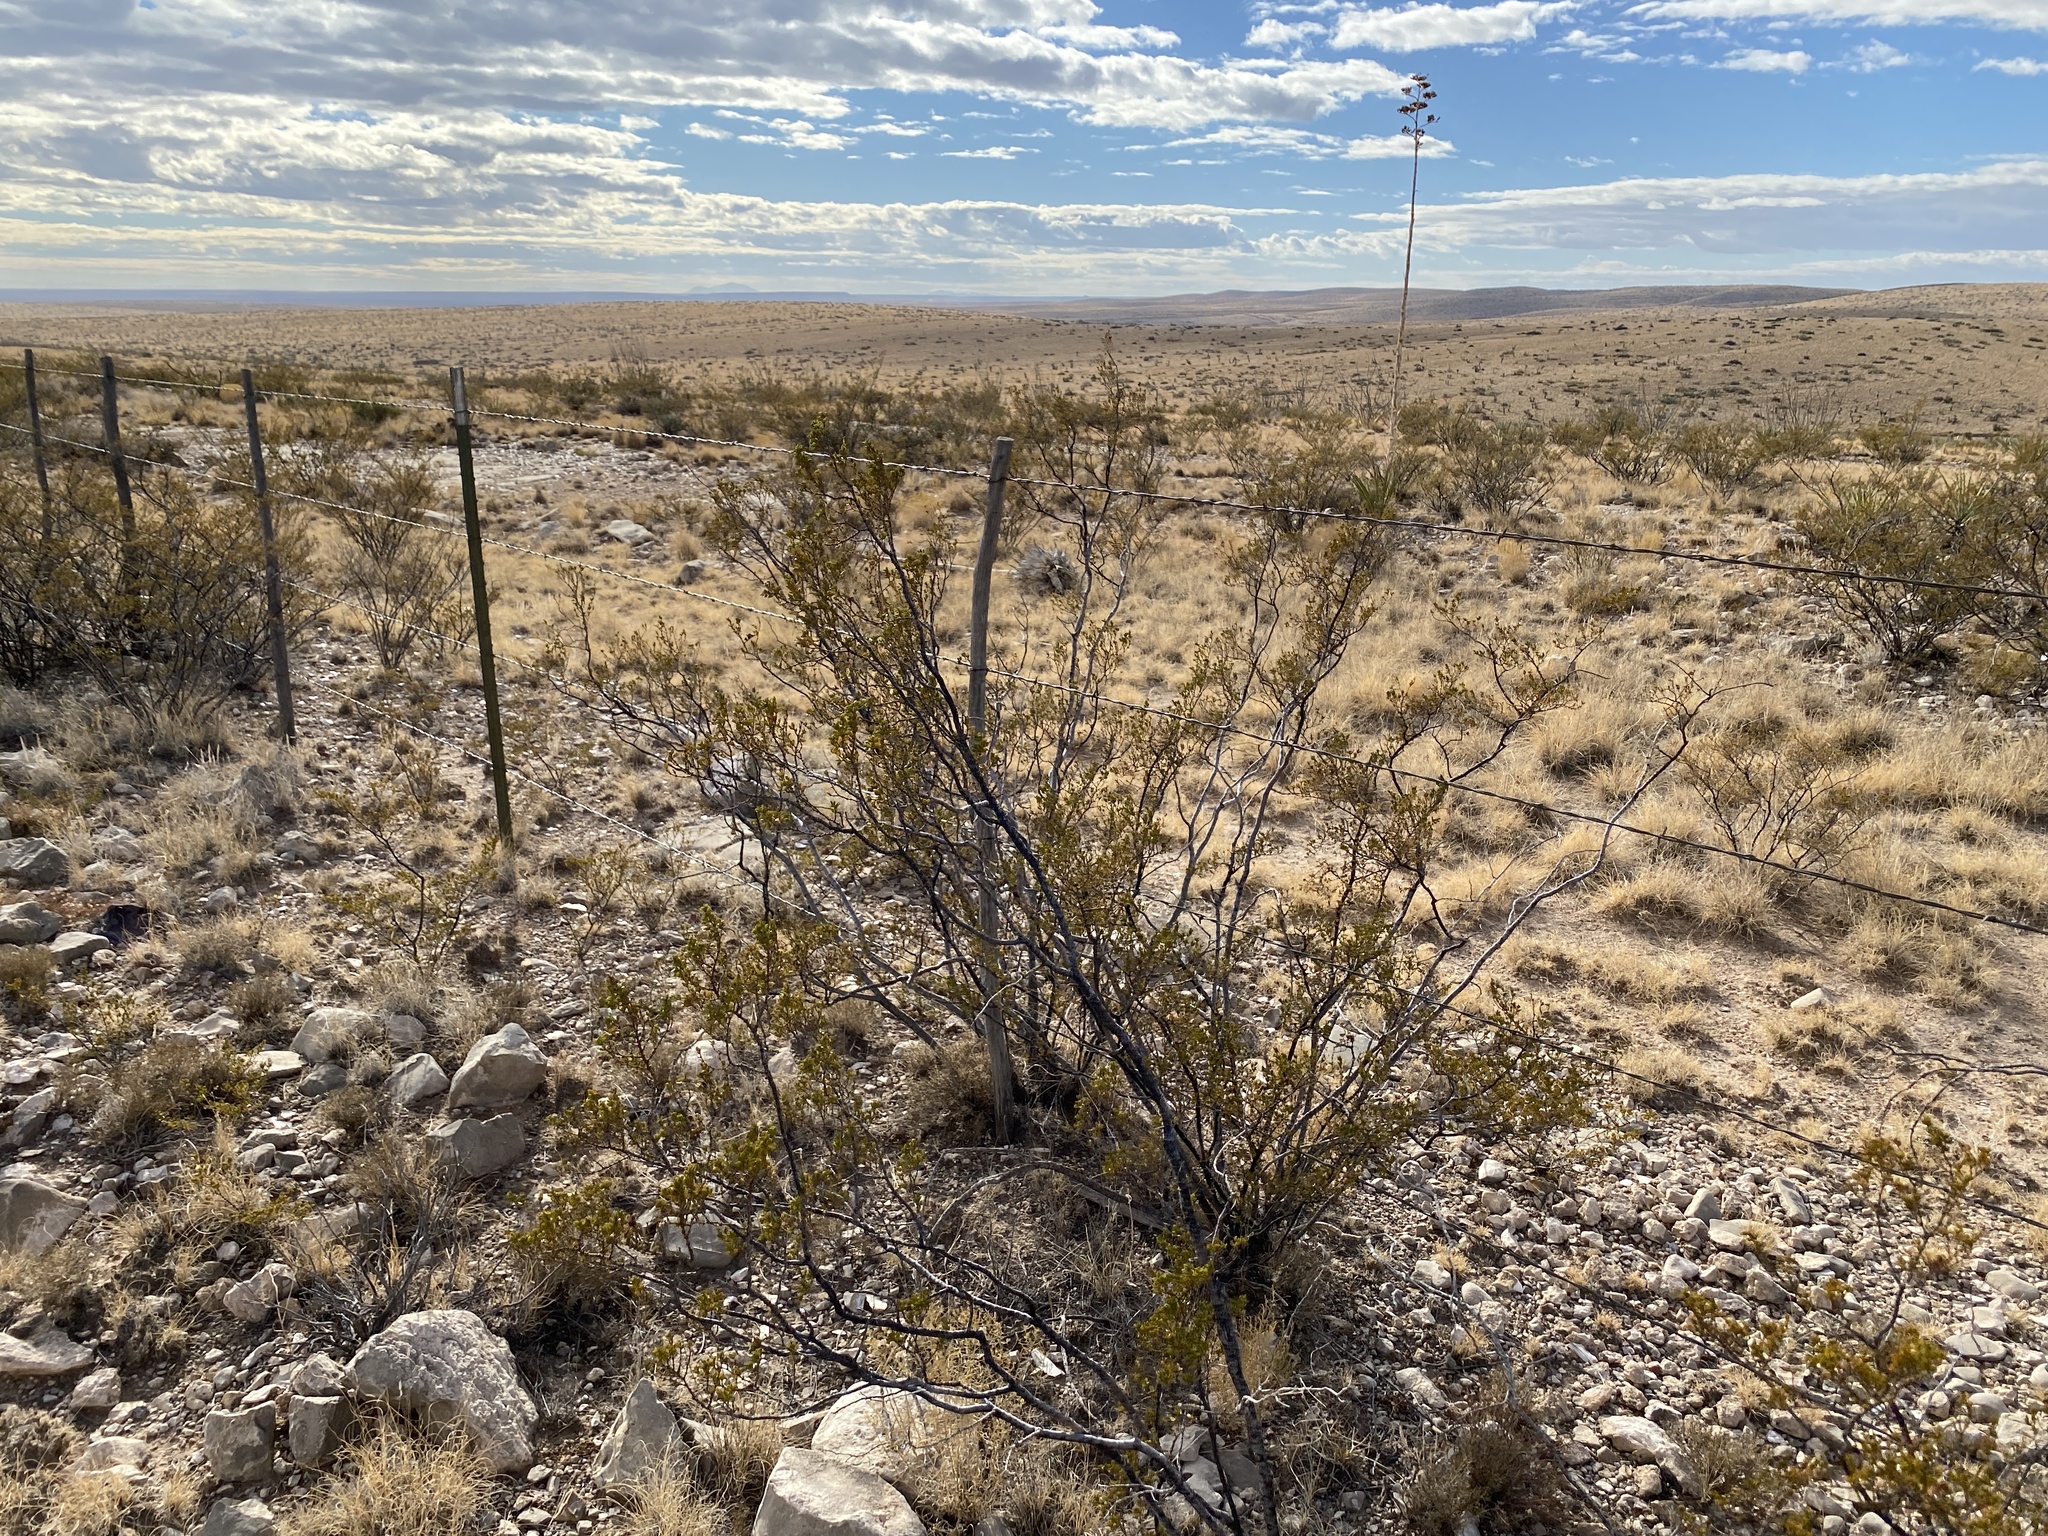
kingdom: Plantae
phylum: Tracheophyta
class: Magnoliopsida
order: Zygophyllales
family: Zygophyllaceae
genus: Larrea
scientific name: Larrea tridentata
